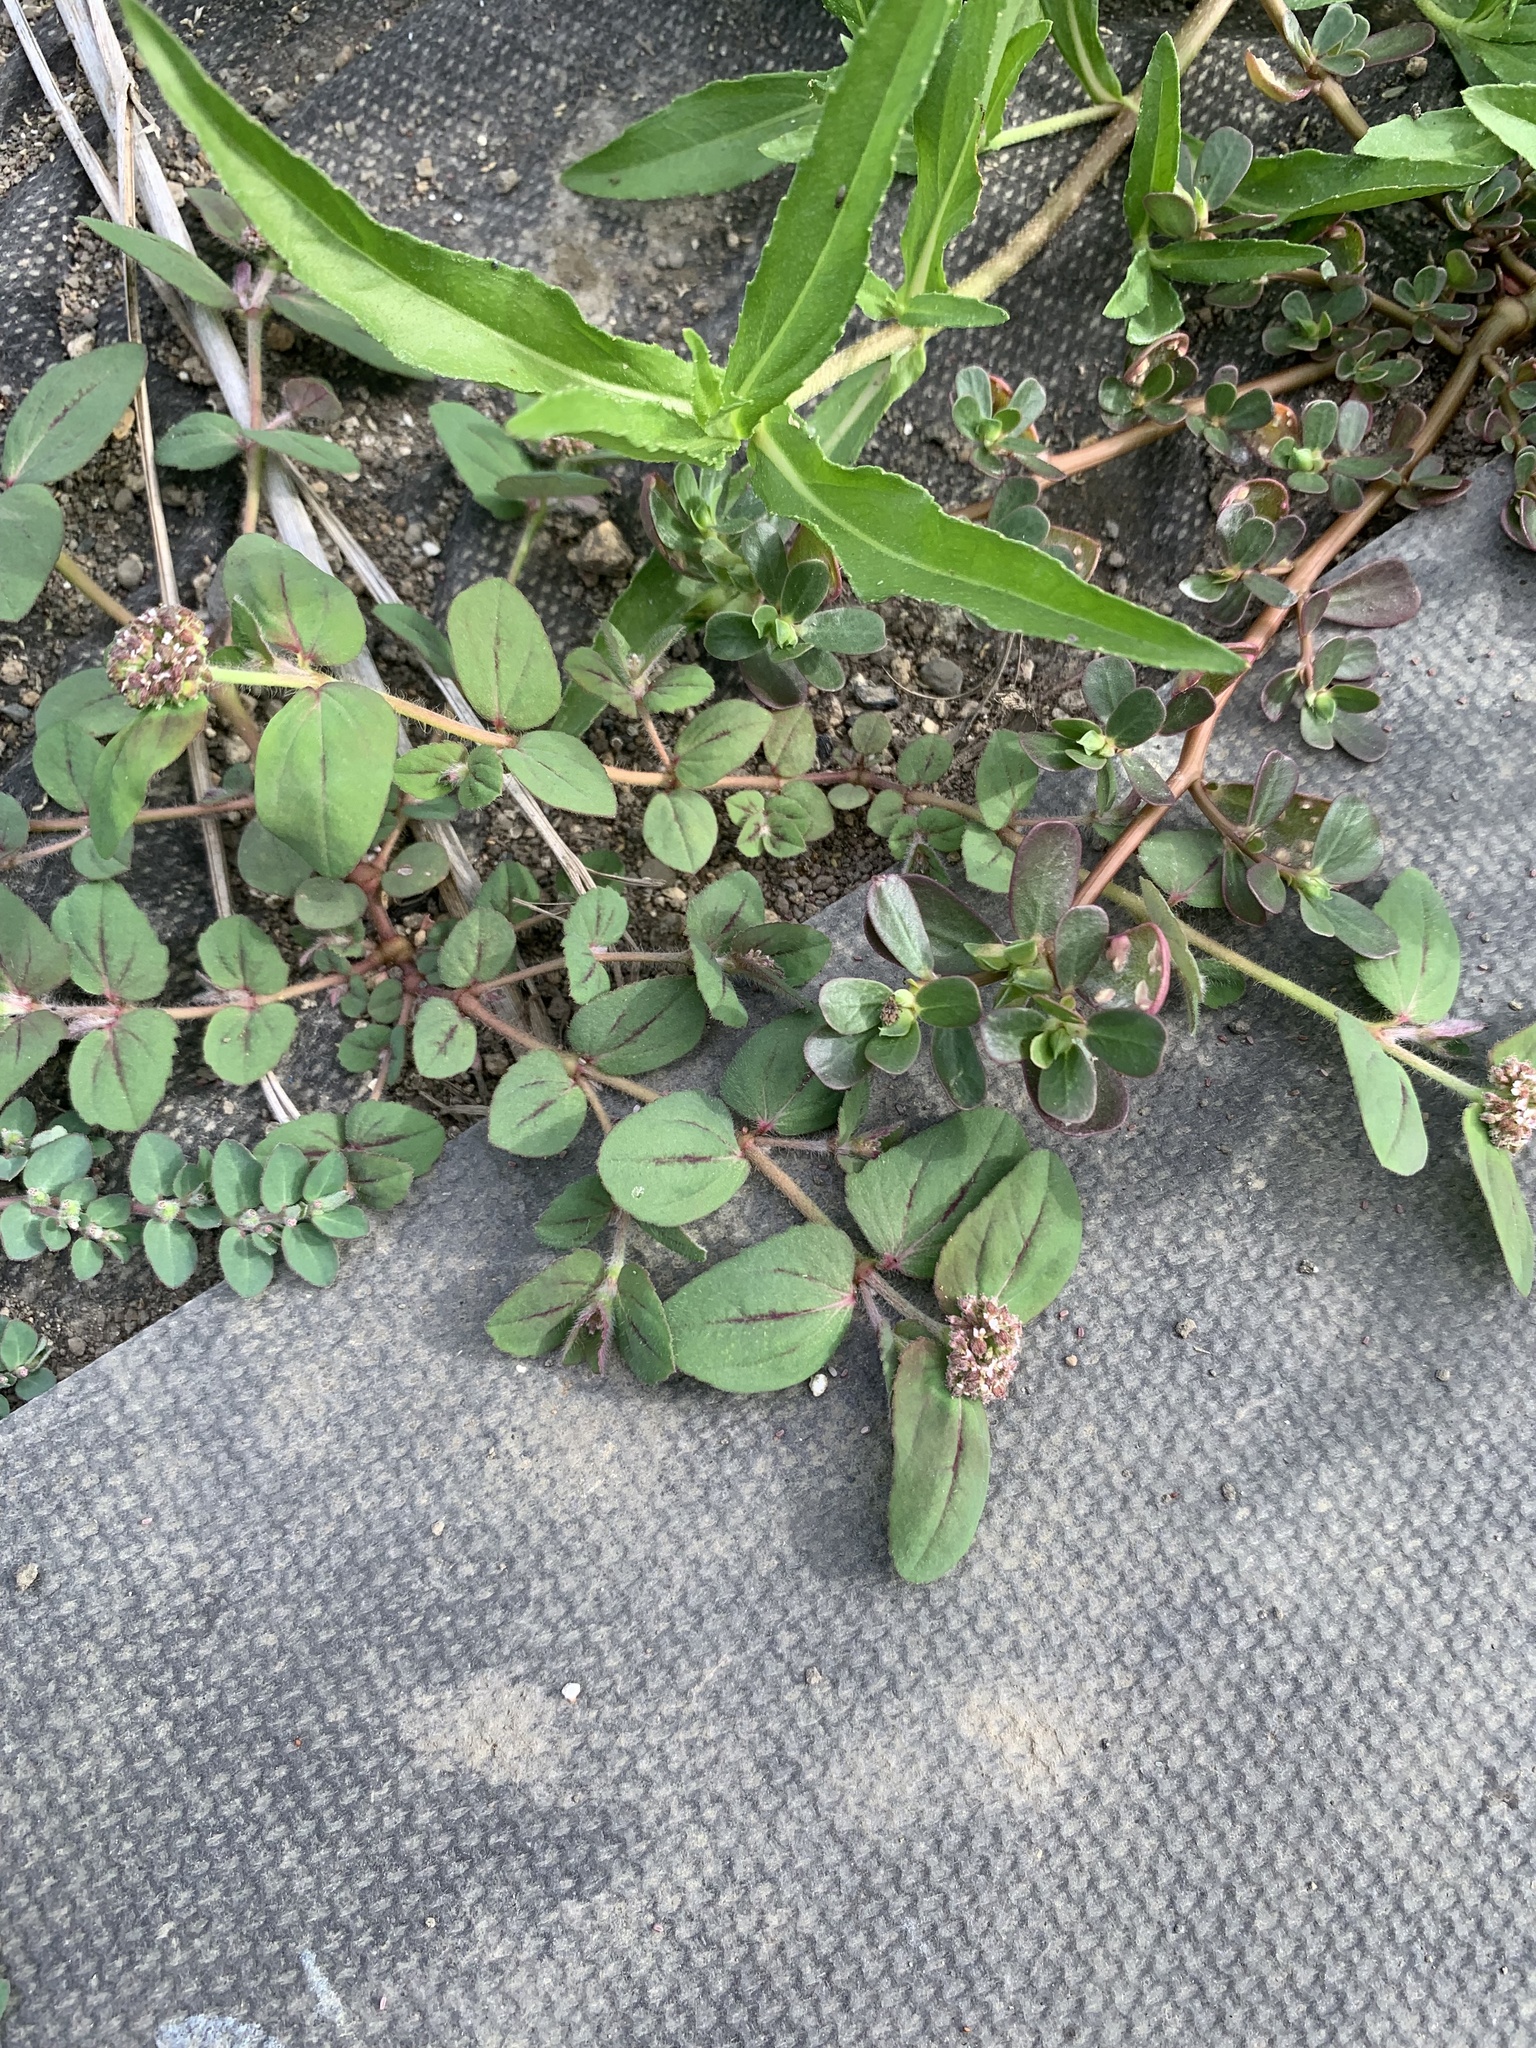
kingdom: Plantae
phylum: Tracheophyta
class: Magnoliopsida
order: Malpighiales
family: Euphorbiaceae
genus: Euphorbia
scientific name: Euphorbia ophthalmica
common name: Florida hammock sandmat
